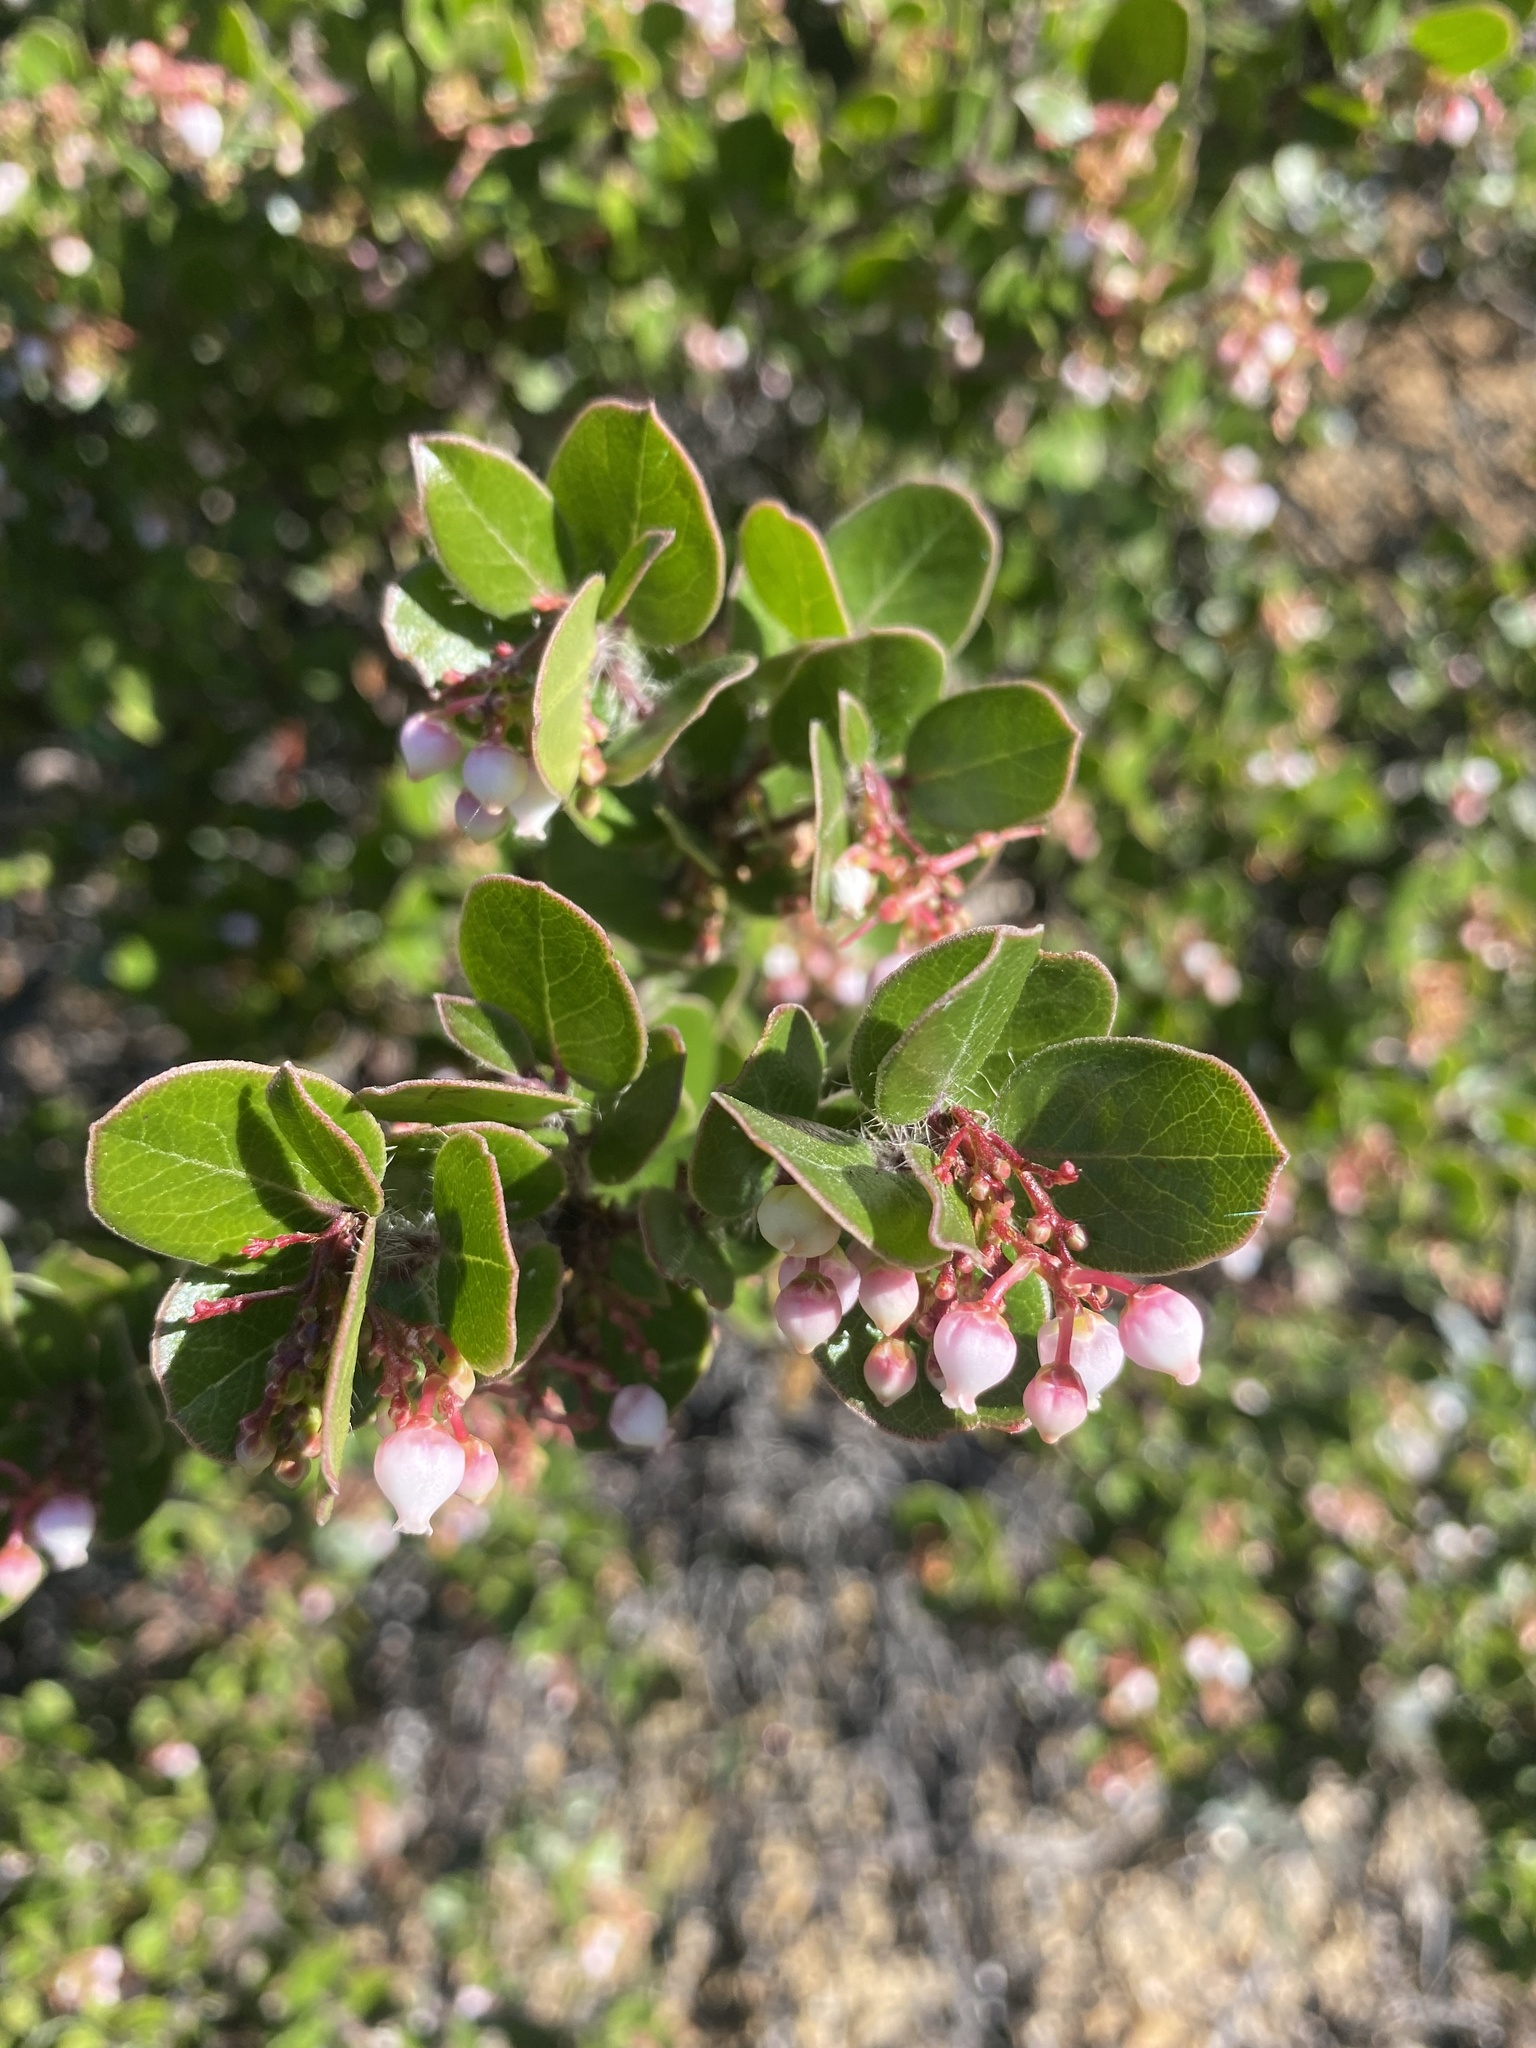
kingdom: Plantae
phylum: Tracheophyta
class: Magnoliopsida
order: Ericales
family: Ericaceae
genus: Arctostaphylos
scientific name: Arctostaphylos nummularia
